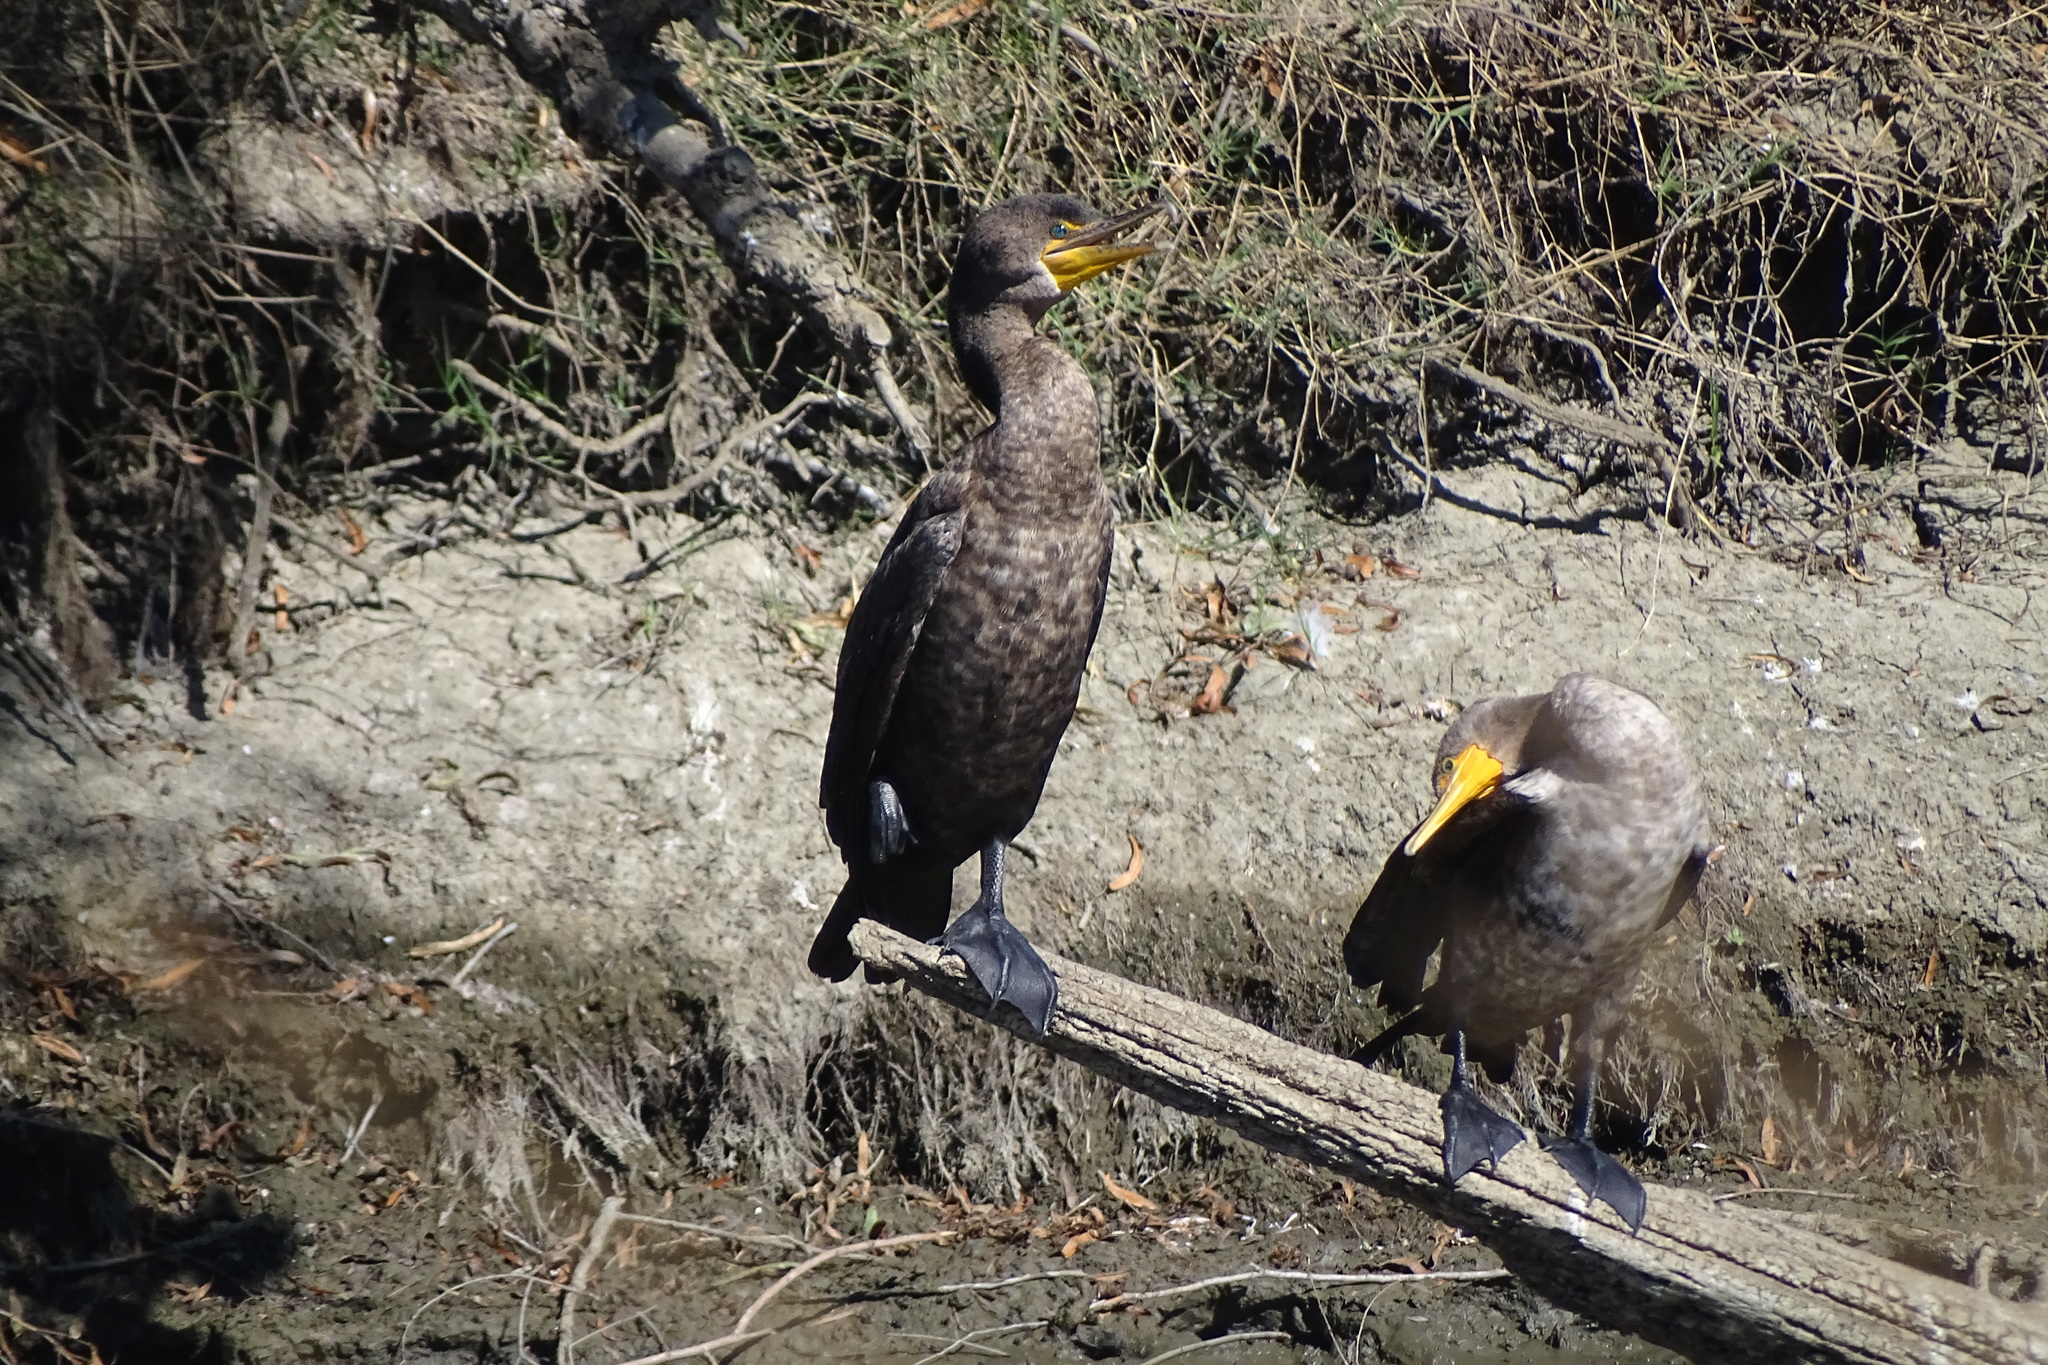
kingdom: Animalia
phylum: Chordata
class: Aves
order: Suliformes
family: Phalacrocoracidae
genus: Phalacrocorax
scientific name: Phalacrocorax auritus
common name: Double-crested cormorant
